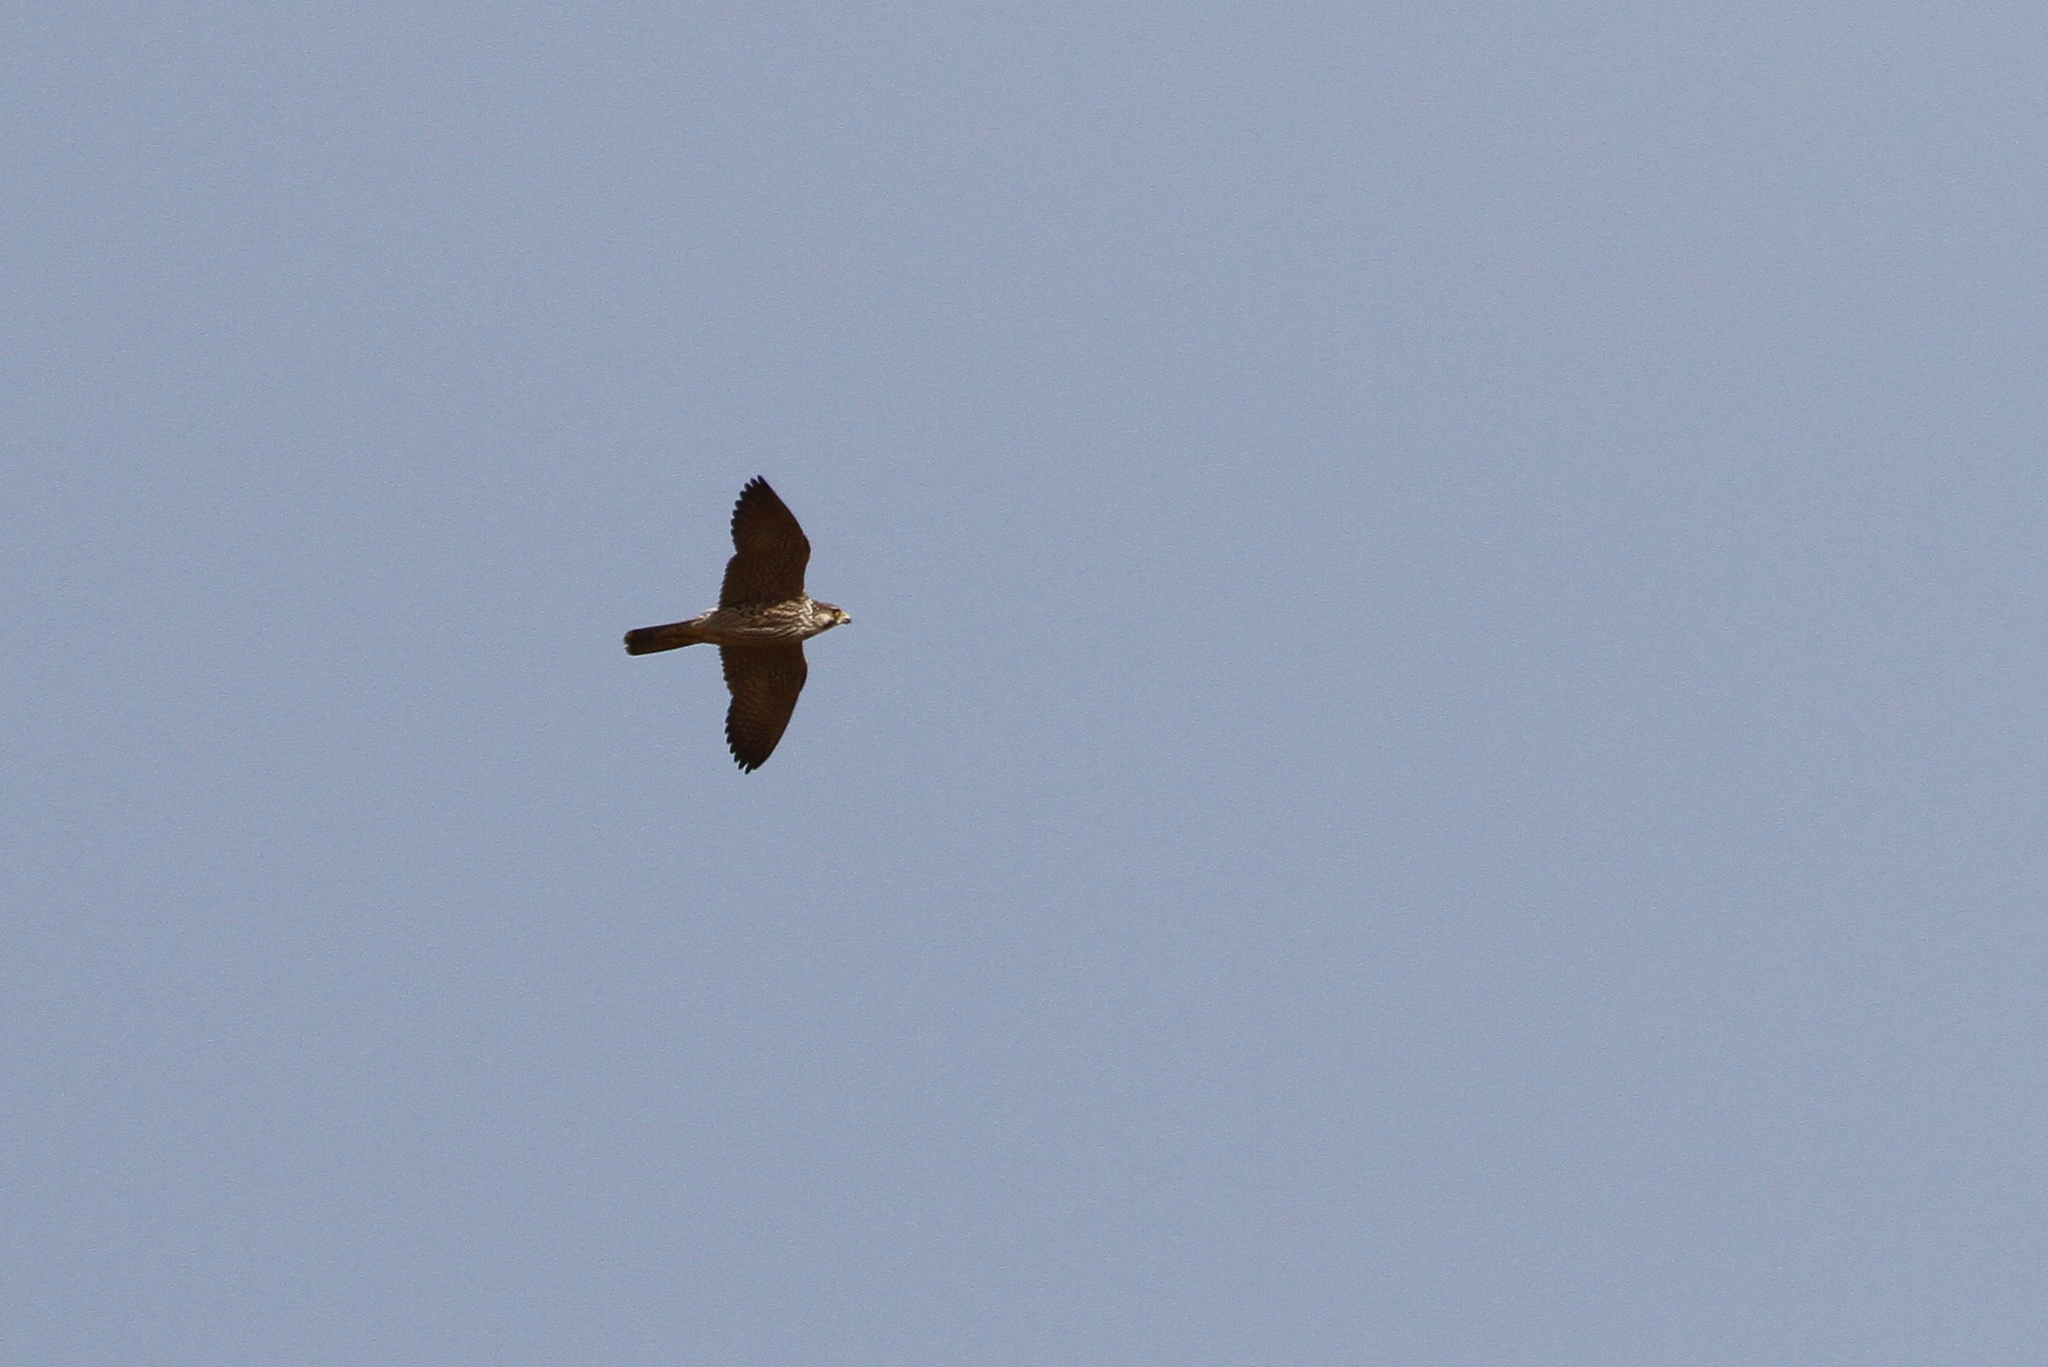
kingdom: Animalia
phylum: Chordata
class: Aves
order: Falconiformes
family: Falconidae
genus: Falco
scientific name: Falco peregrinus
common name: Peregrine falcon
